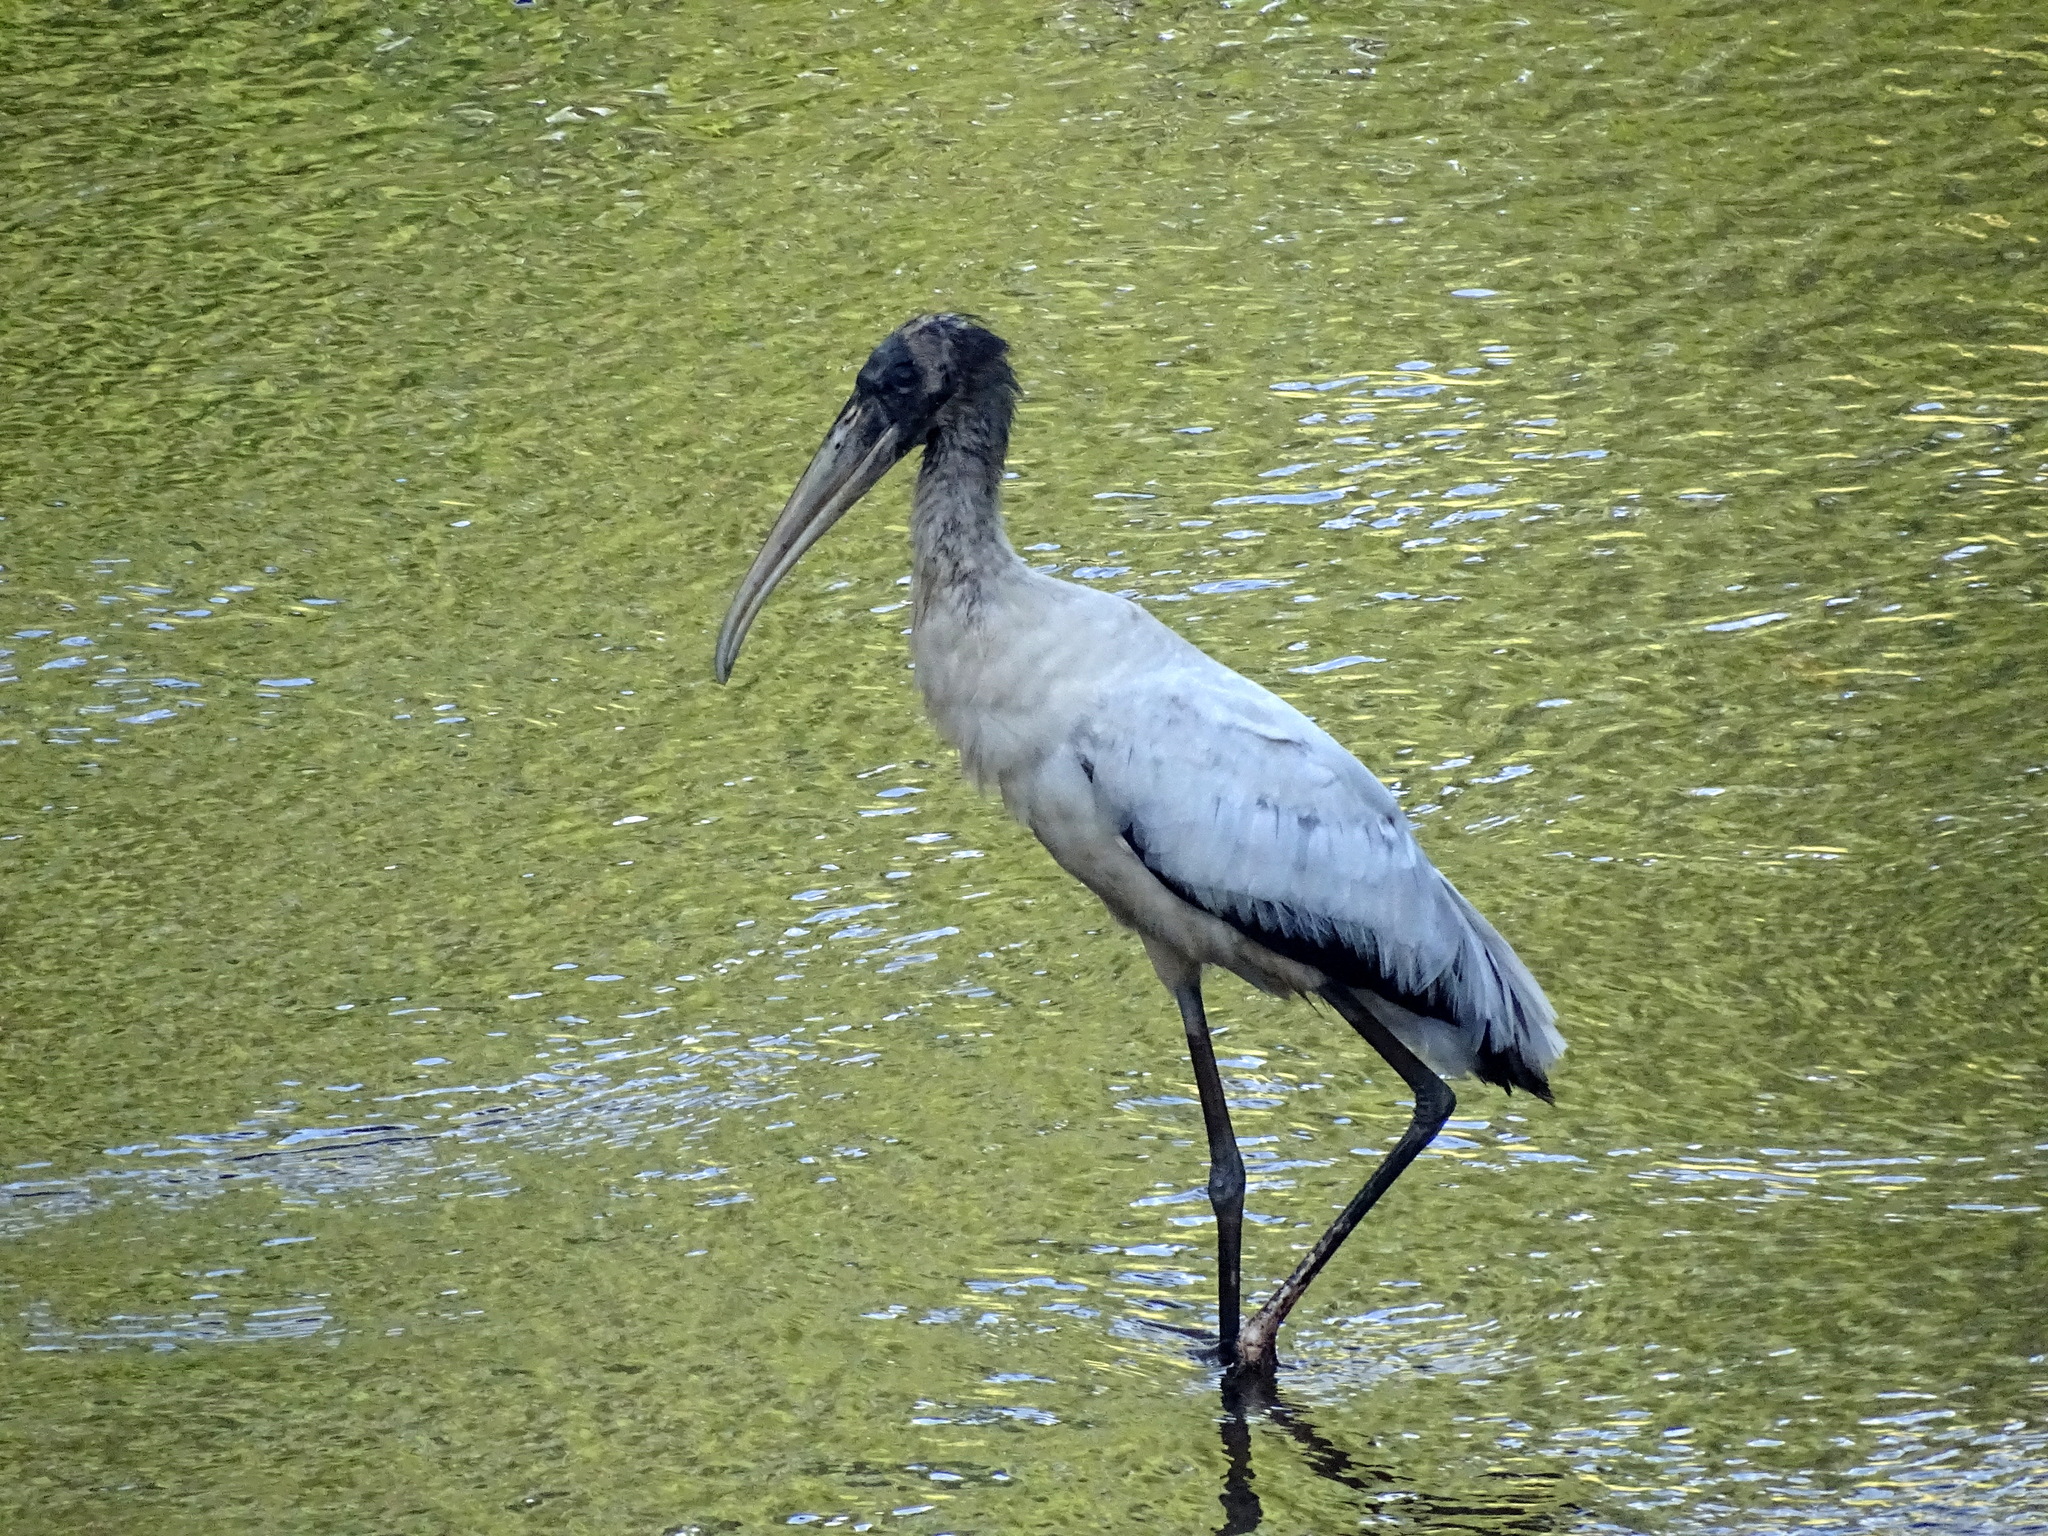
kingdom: Animalia
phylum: Chordata
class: Aves
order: Ciconiiformes
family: Ciconiidae
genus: Mycteria
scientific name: Mycteria americana
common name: Wood stork
